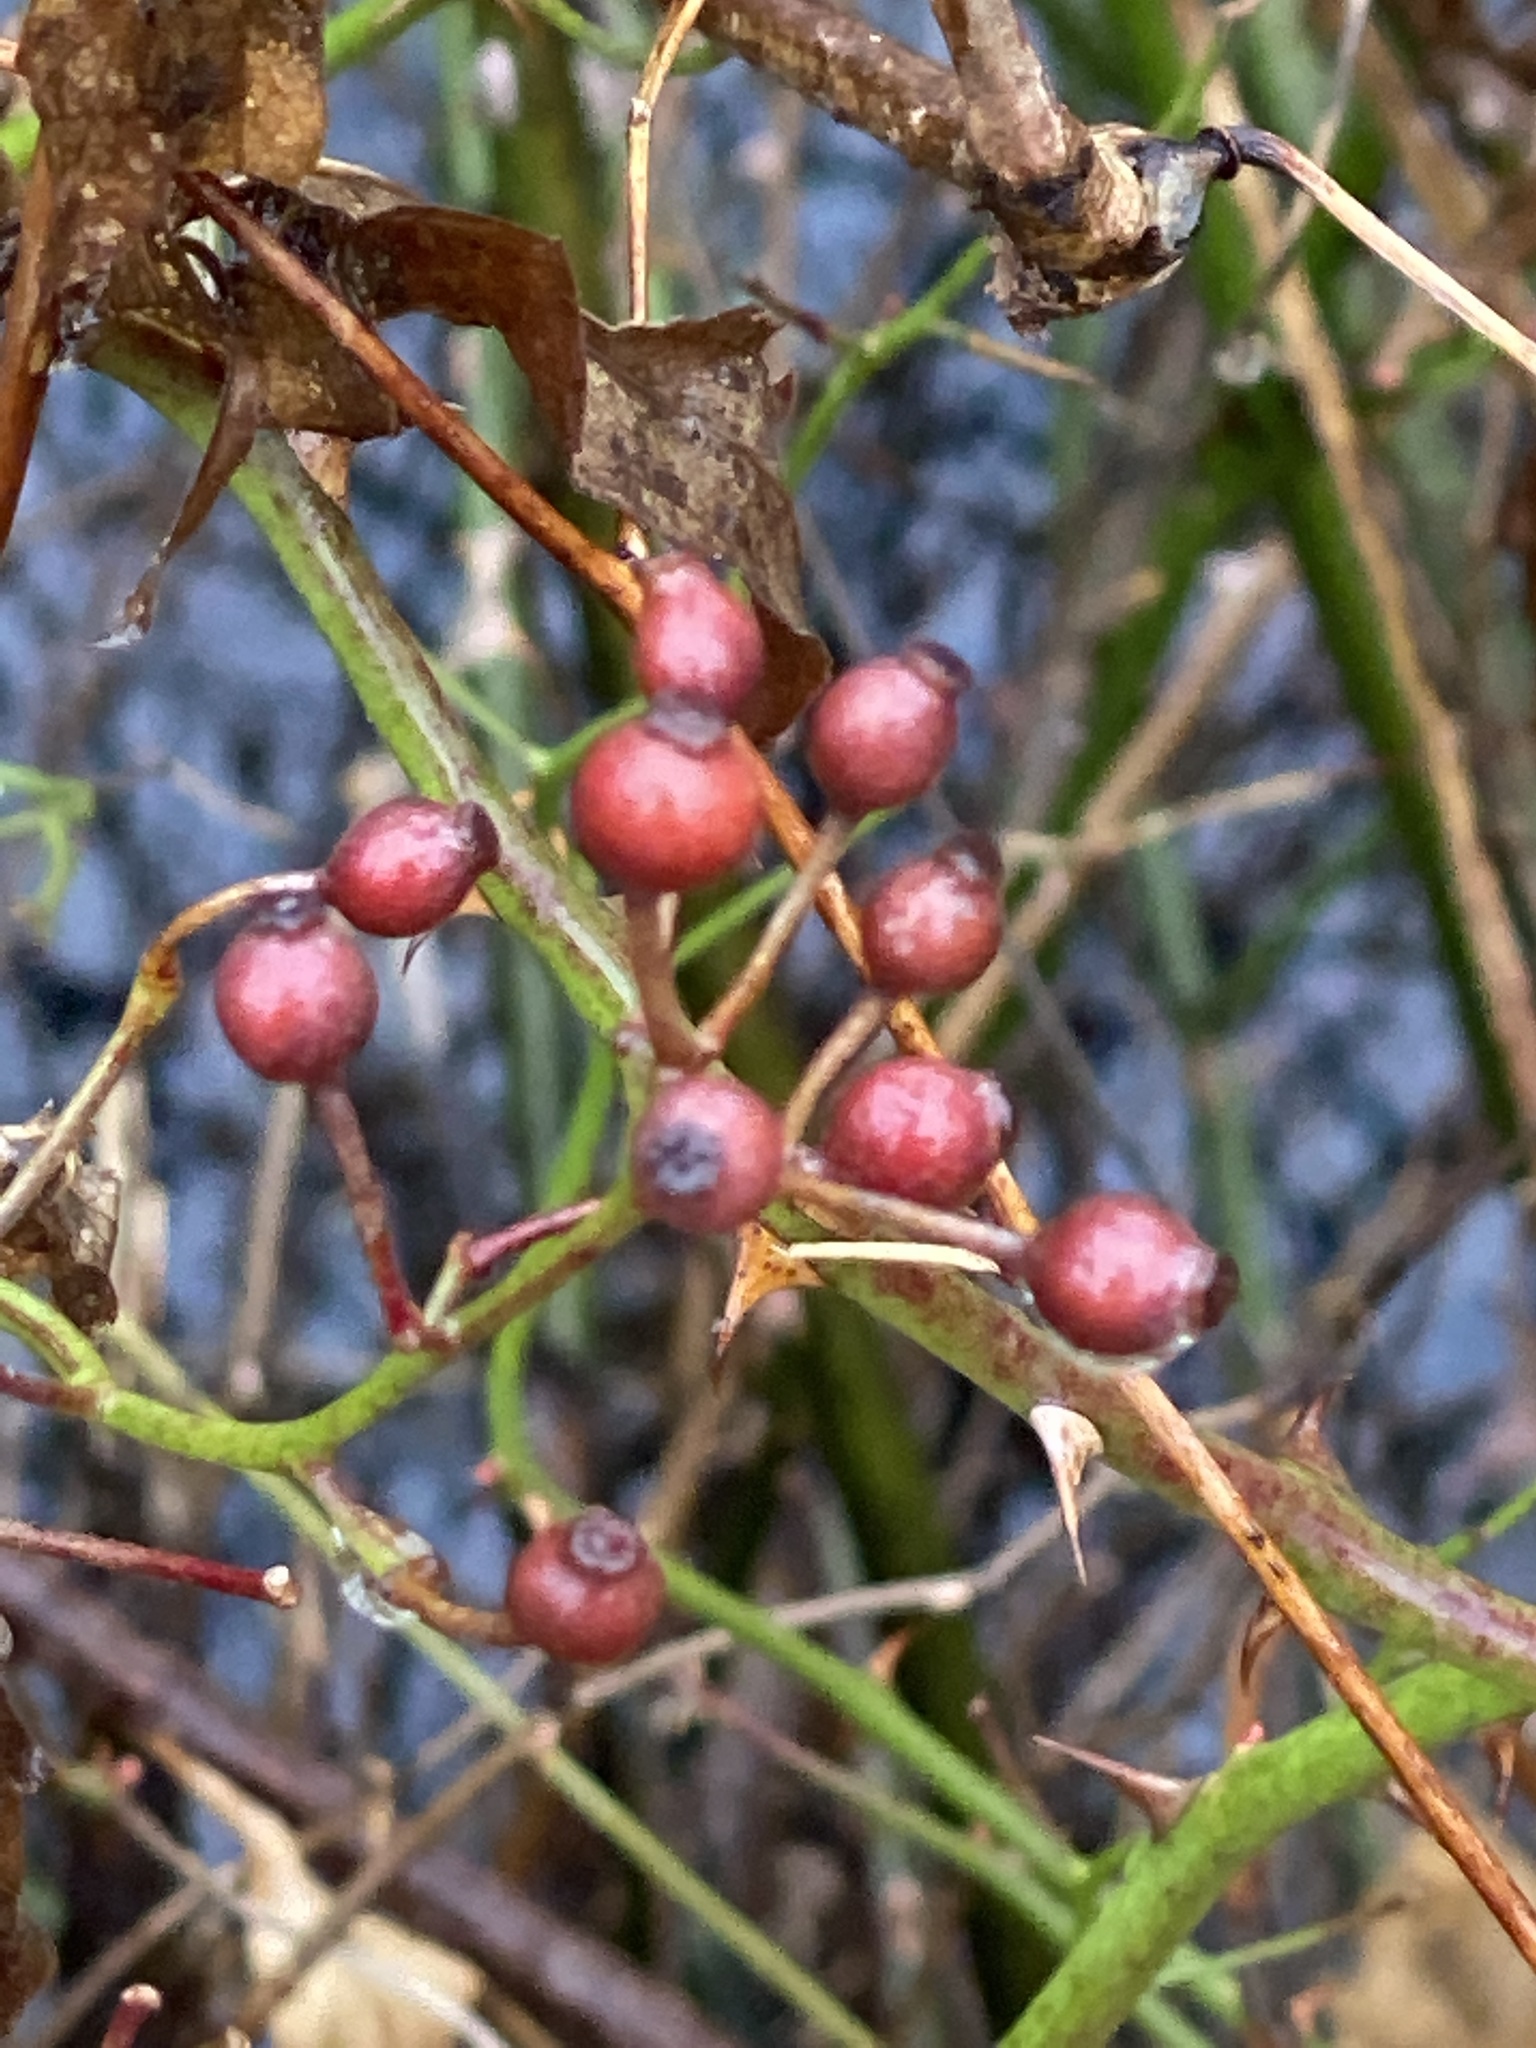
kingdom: Plantae
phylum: Tracheophyta
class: Magnoliopsida
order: Rosales
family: Rosaceae
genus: Rosa
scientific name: Rosa multiflora
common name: Multiflora rose
